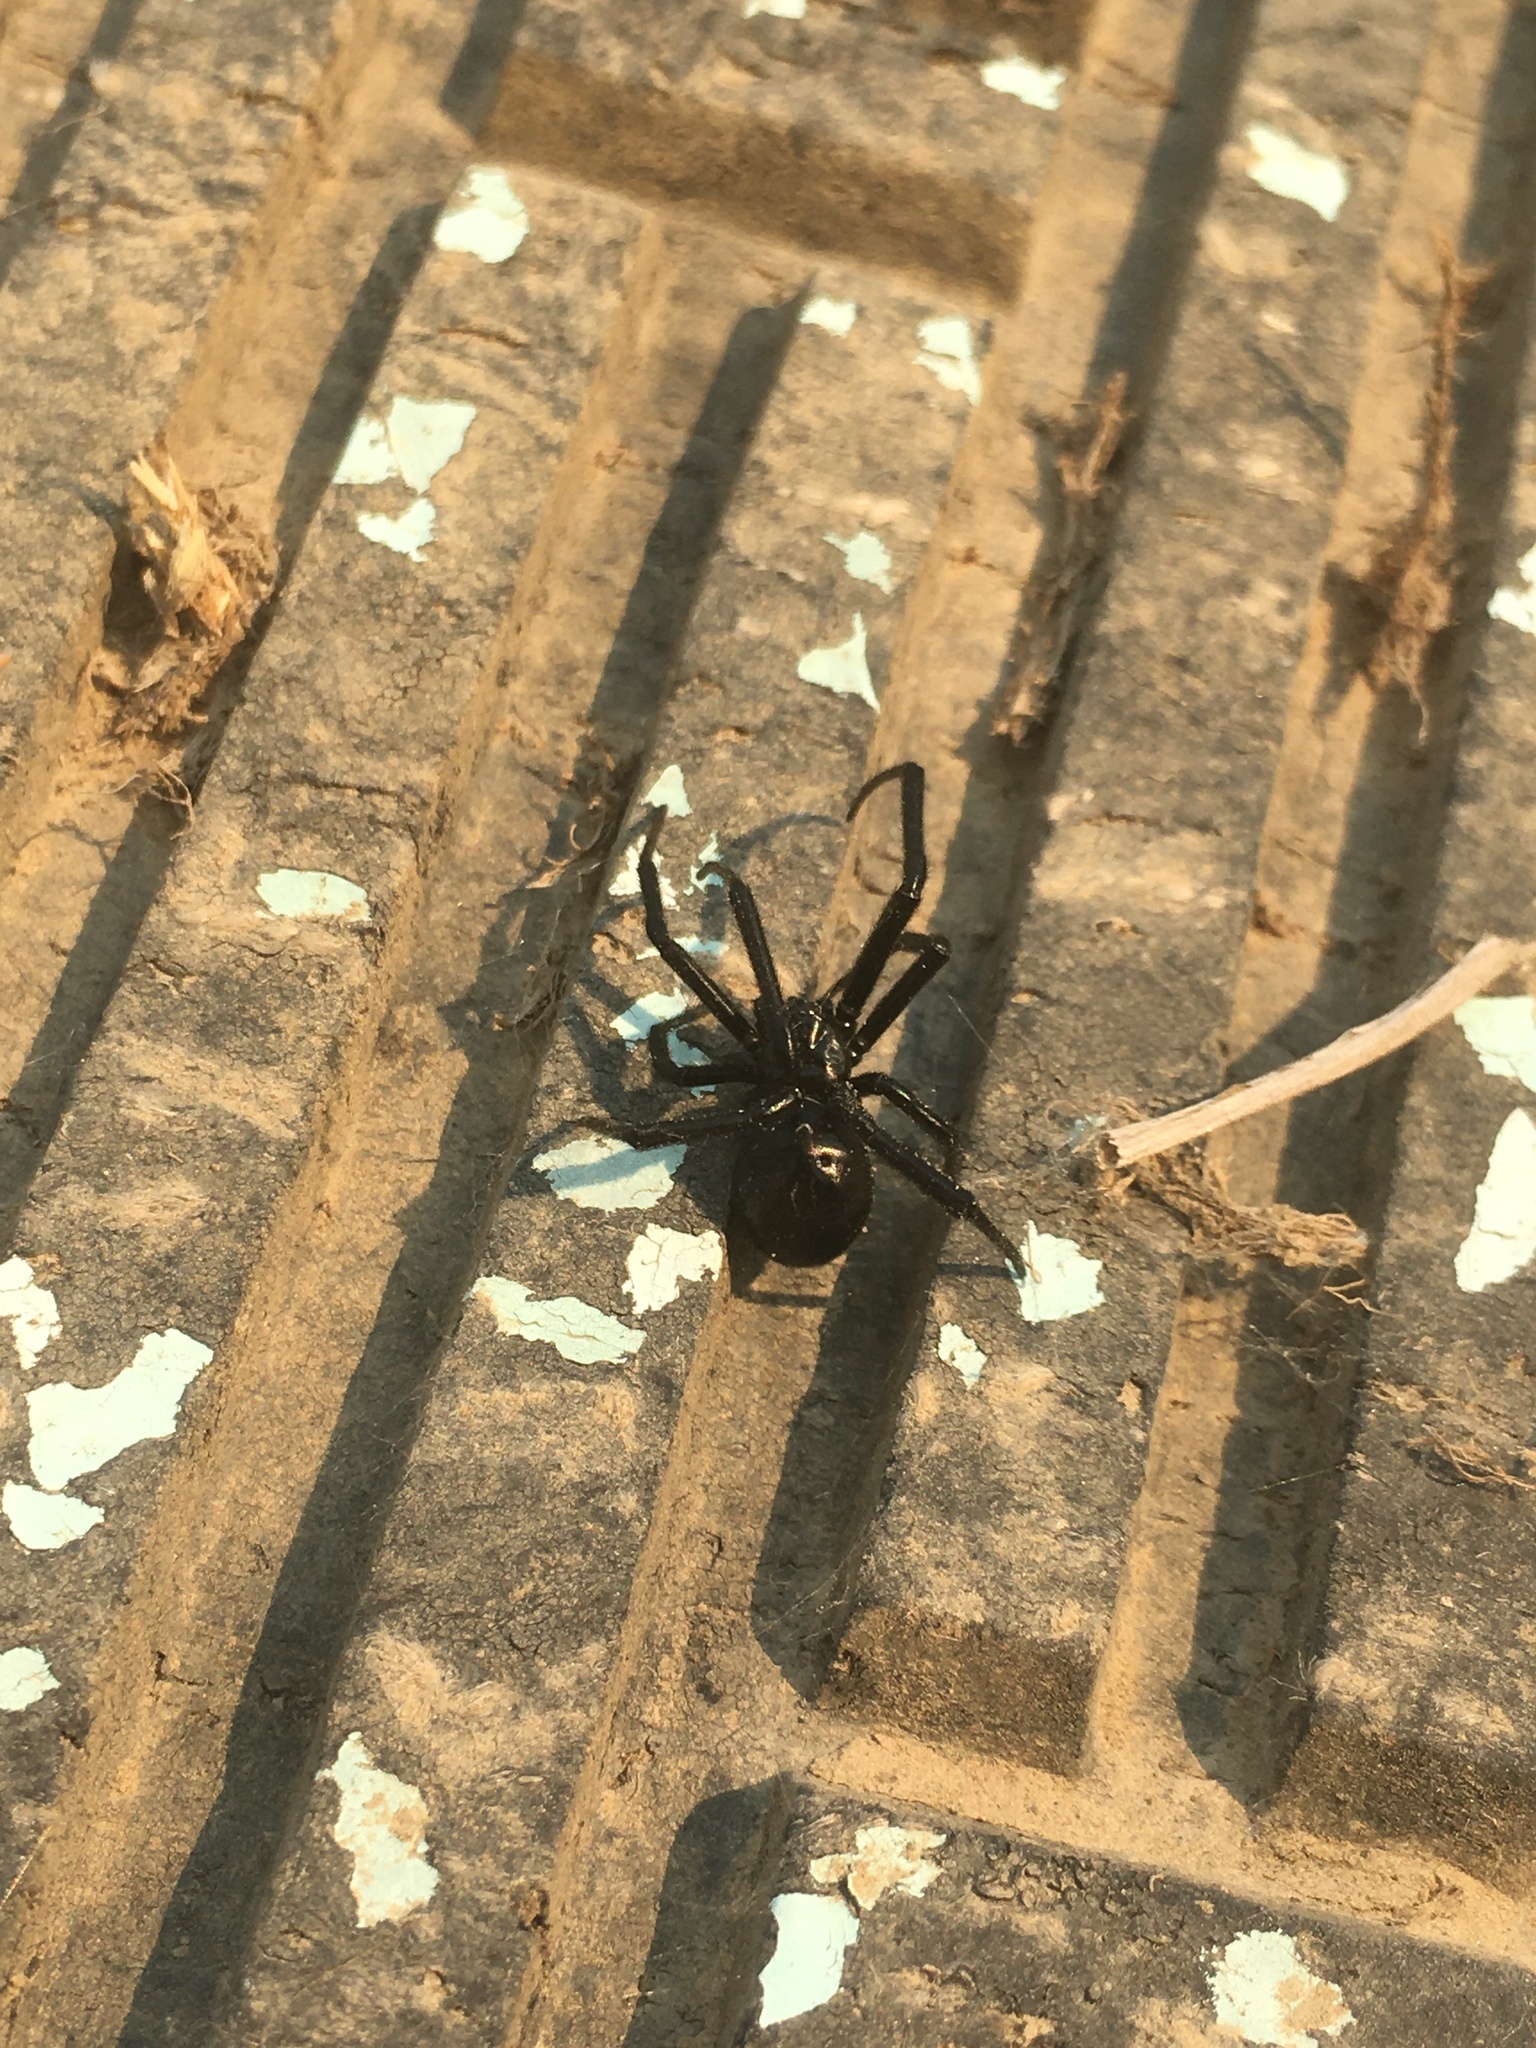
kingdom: Animalia
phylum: Arthropoda
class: Arachnida
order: Araneae
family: Theridiidae
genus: Latrodectus
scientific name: Latrodectus hesperus
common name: Western black widow
